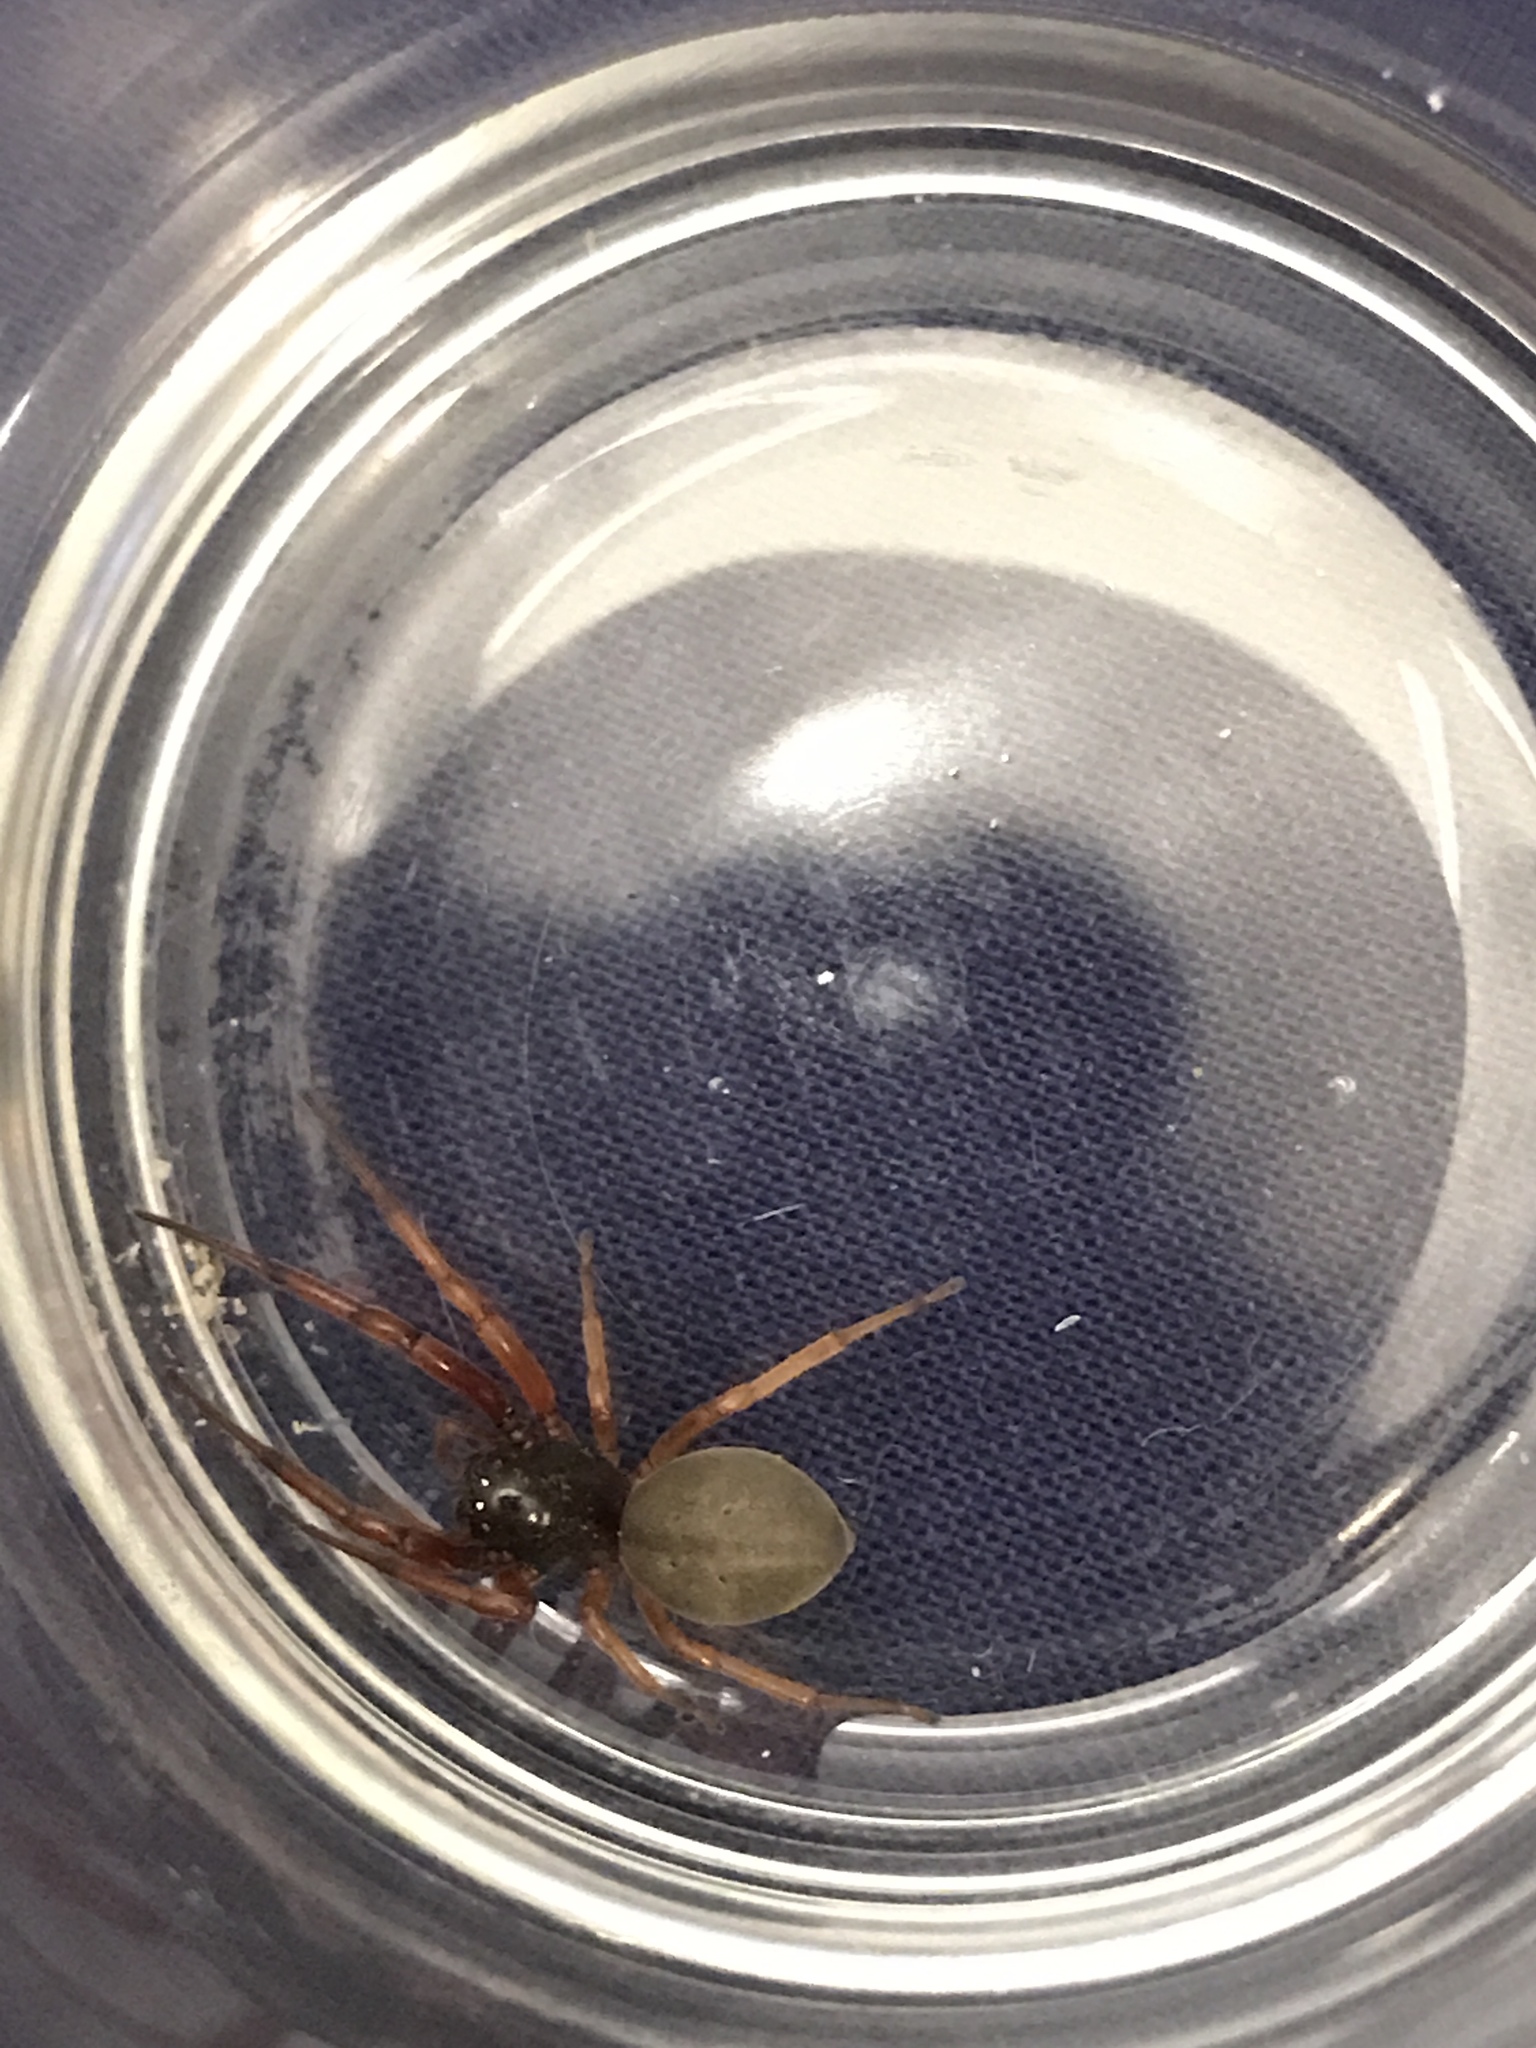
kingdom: Animalia
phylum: Arthropoda
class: Arachnida
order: Araneae
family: Trachelidae
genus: Trachelas
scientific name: Trachelas tranquillus
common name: Broad-faced sac spider
